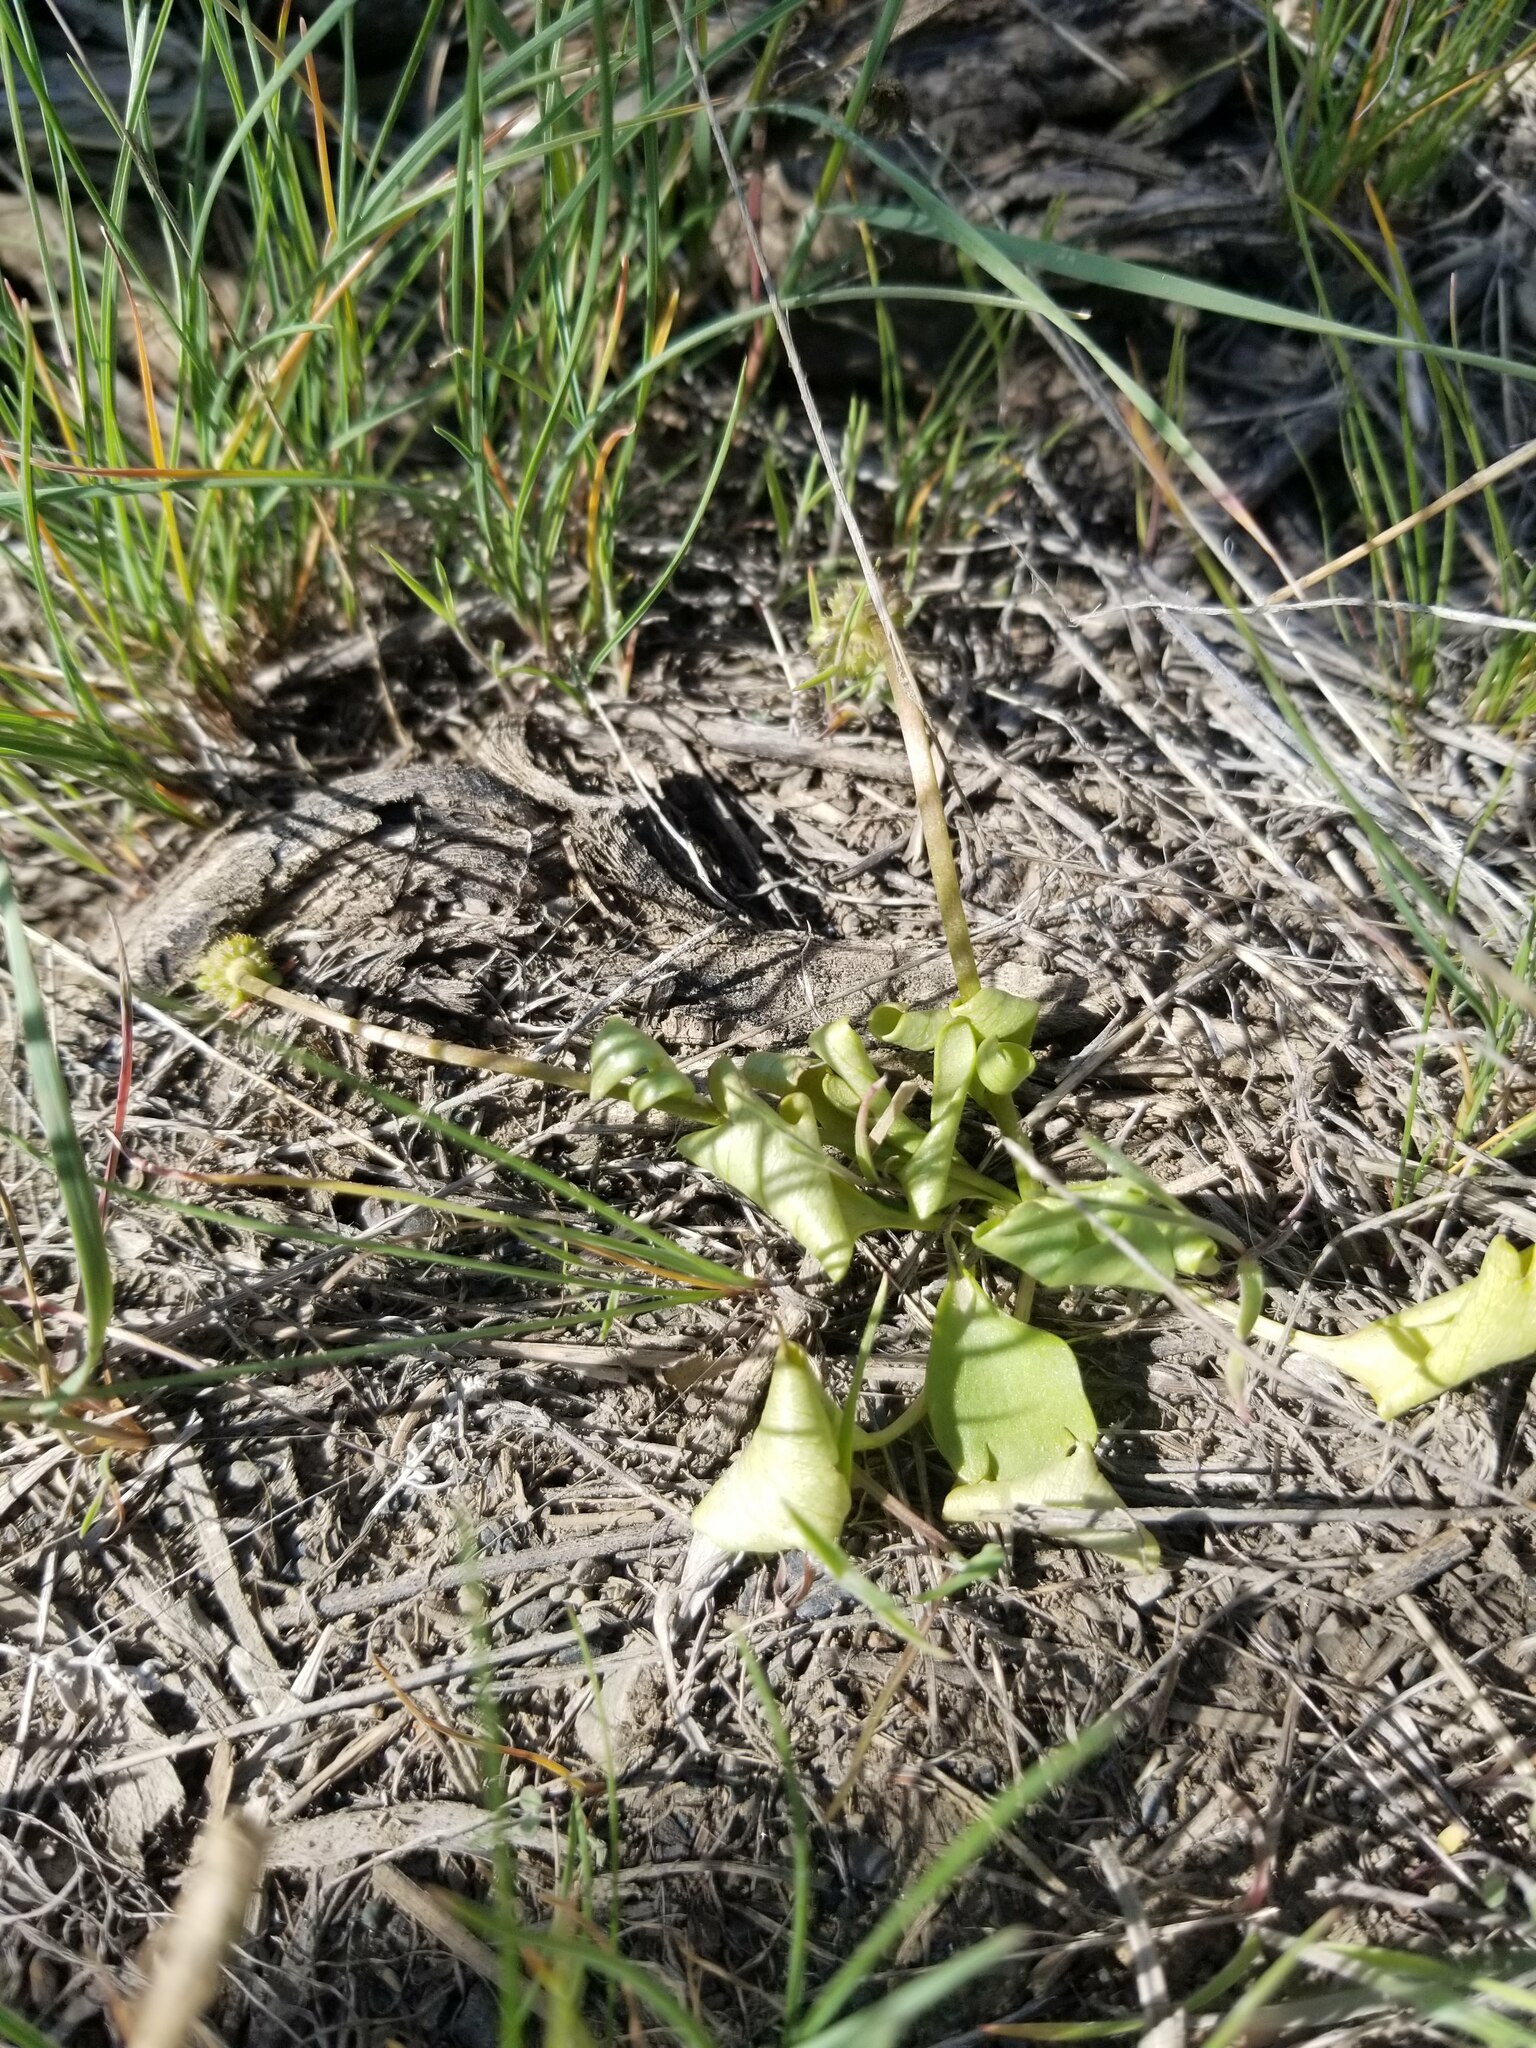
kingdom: Plantae
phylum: Tracheophyta
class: Magnoliopsida
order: Ranunculales
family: Ranunculaceae
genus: Ranunculus
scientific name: Ranunculus glaberrimus
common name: Sagebrush buttercup
